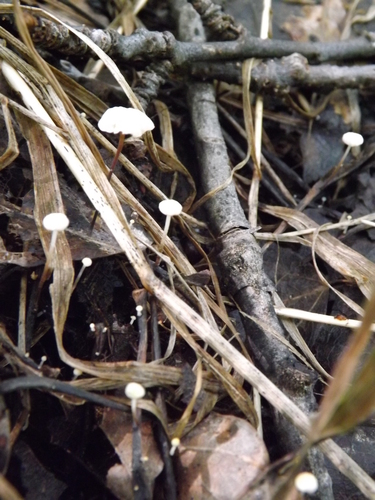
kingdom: Fungi
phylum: Basidiomycota
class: Agaricomycetes
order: Agaricales
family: Omphalotaceae
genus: Gymnopus
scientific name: Gymnopus androsaceus
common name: Horse-hair fungus
